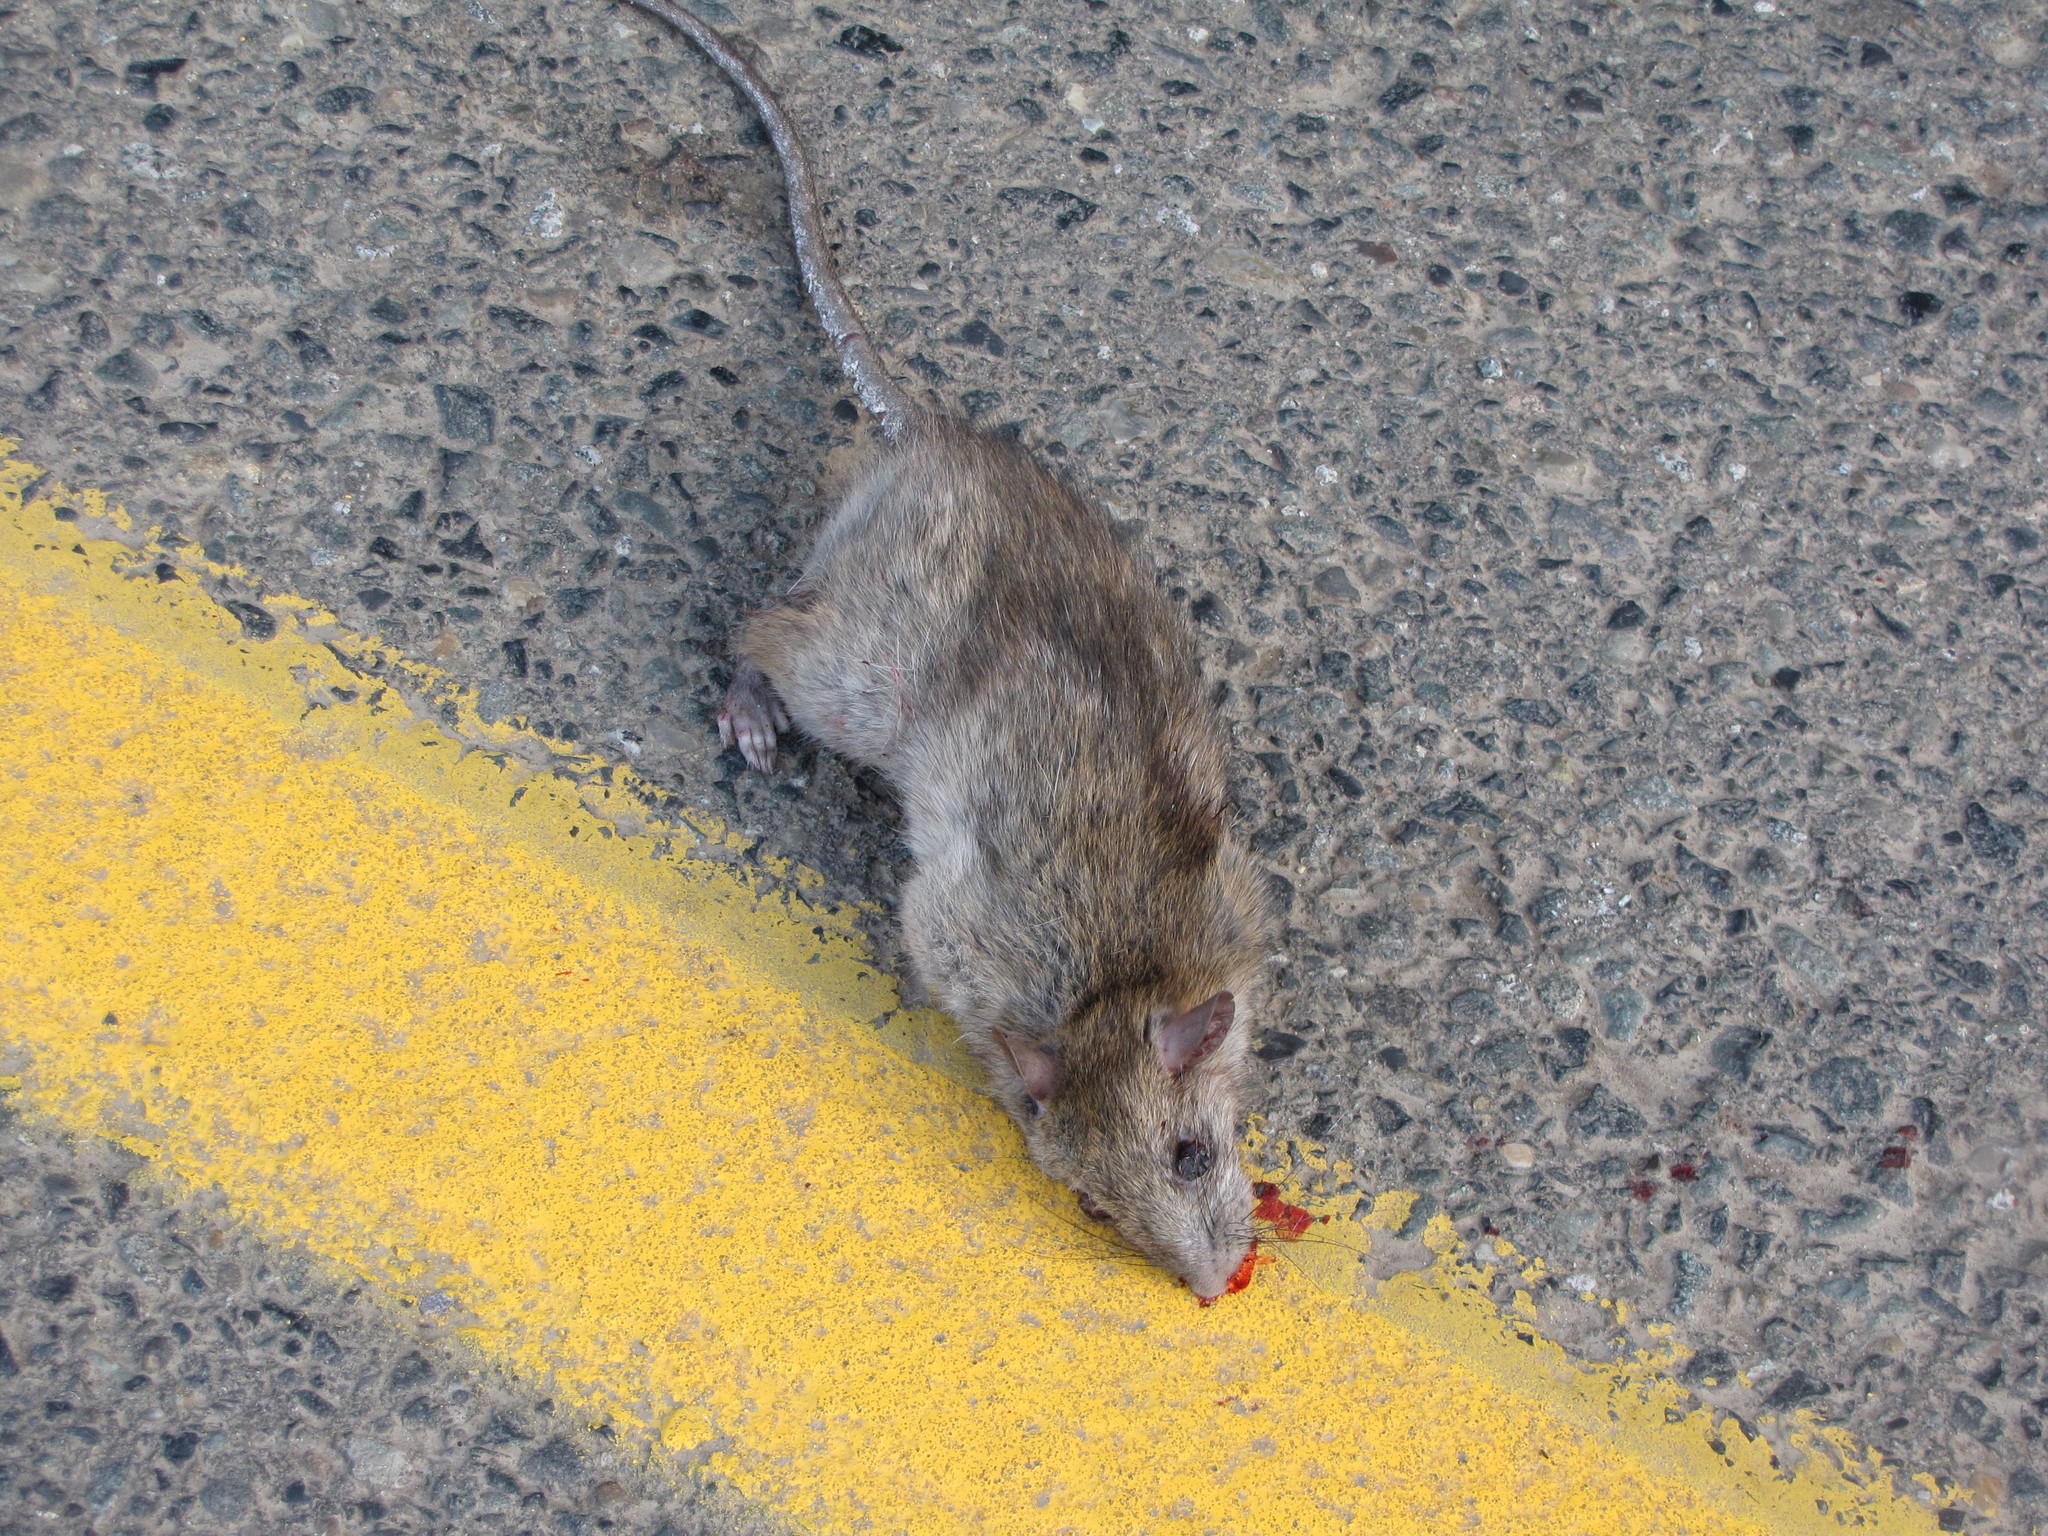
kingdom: Animalia
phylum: Chordata
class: Mammalia
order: Rodentia
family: Muridae
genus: Rattus
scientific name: Rattus norvegicus
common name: Brown rat
